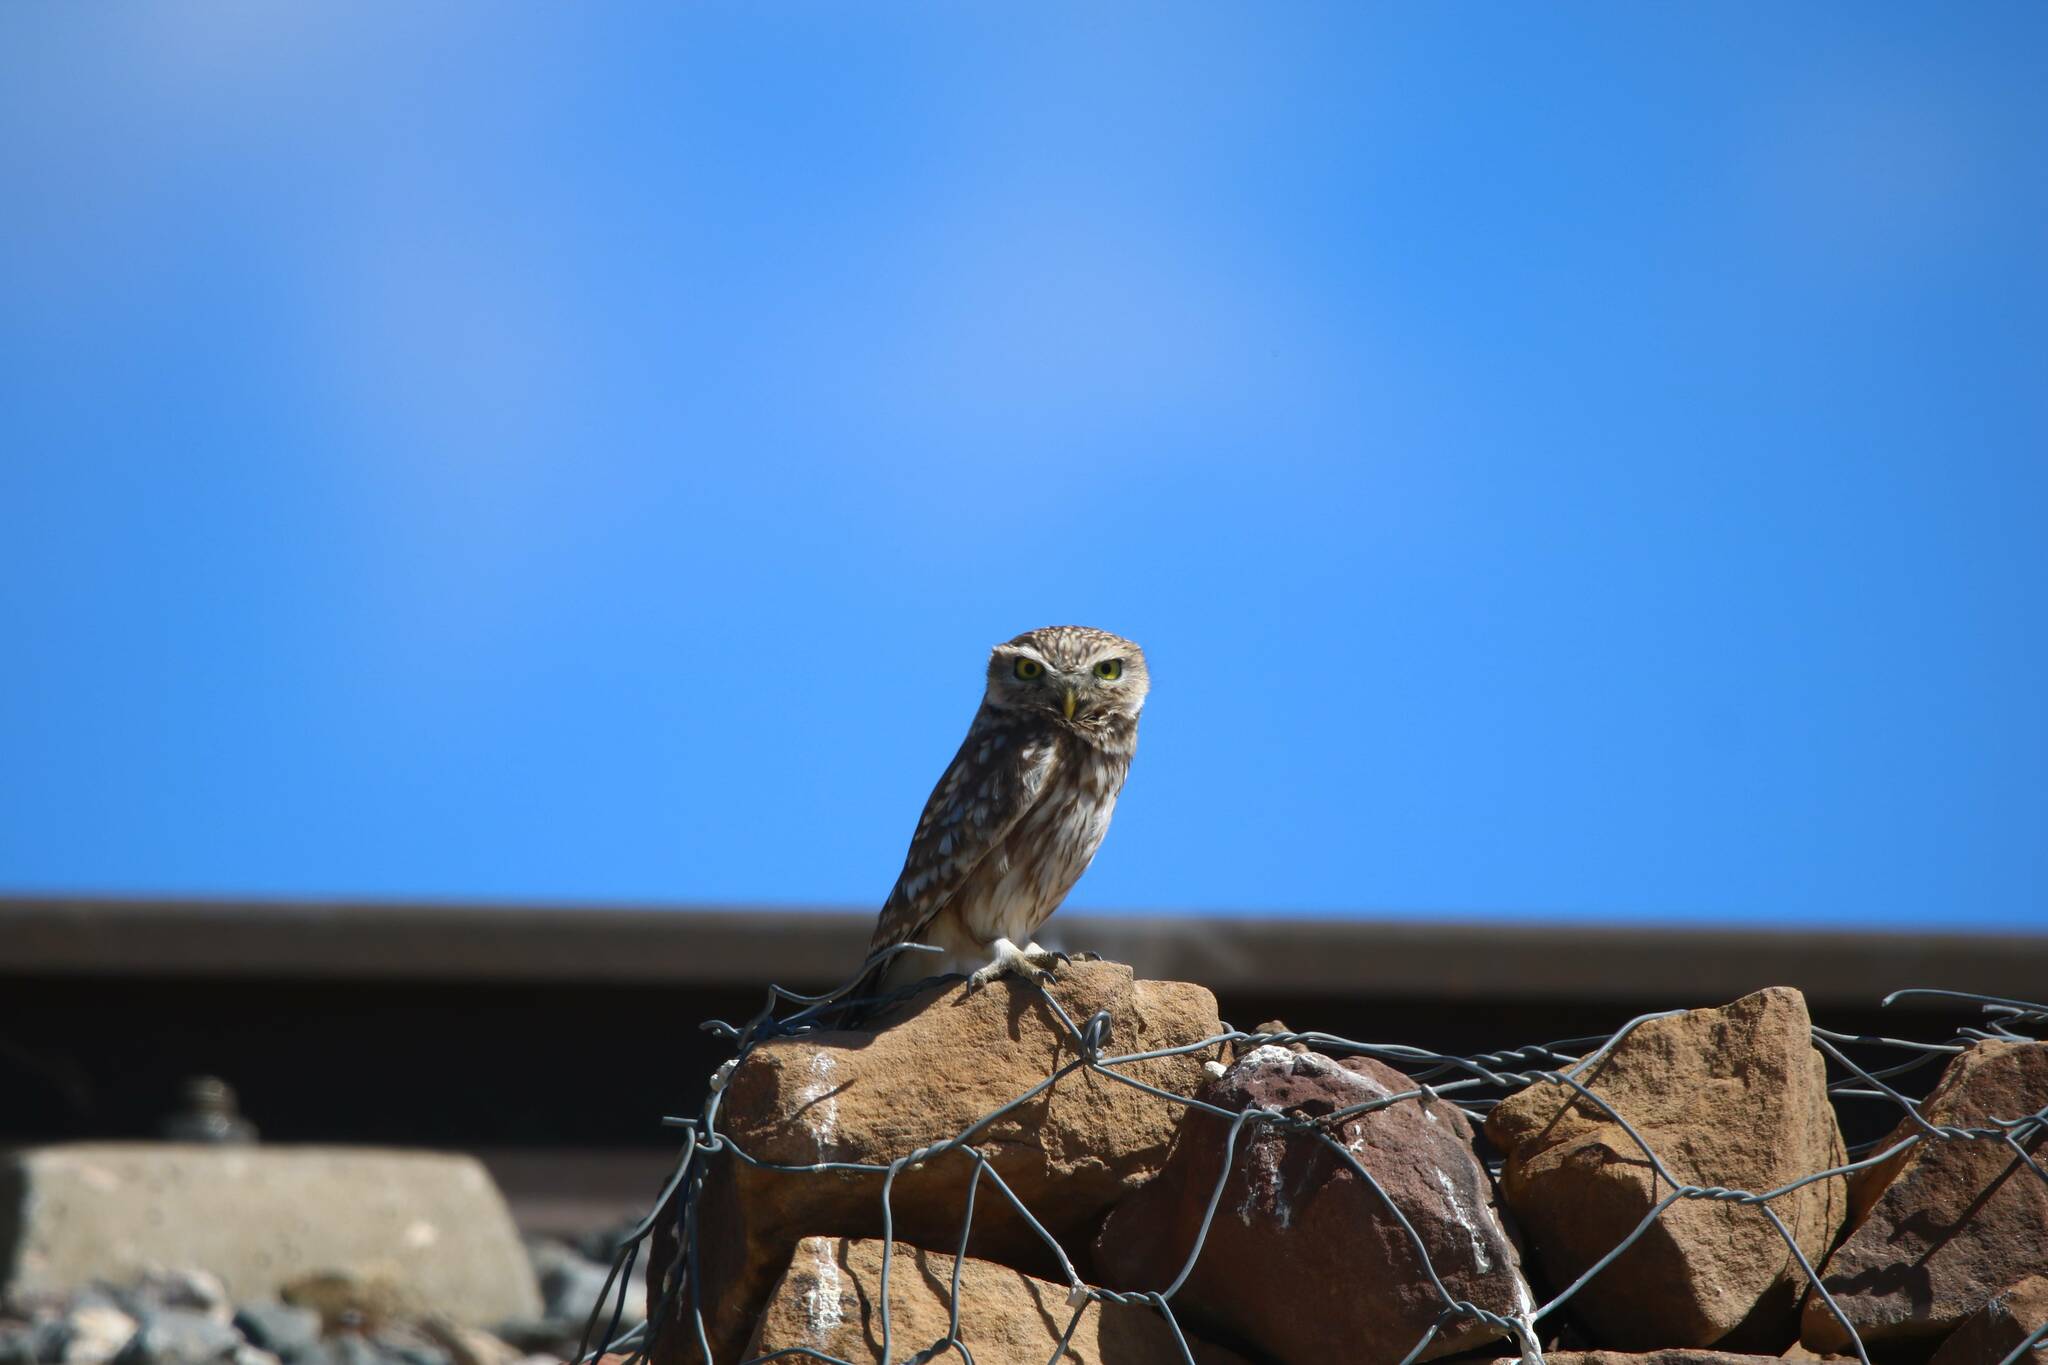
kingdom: Animalia
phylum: Chordata
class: Aves
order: Strigiformes
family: Strigidae
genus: Athene
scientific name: Athene noctua
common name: Little owl
